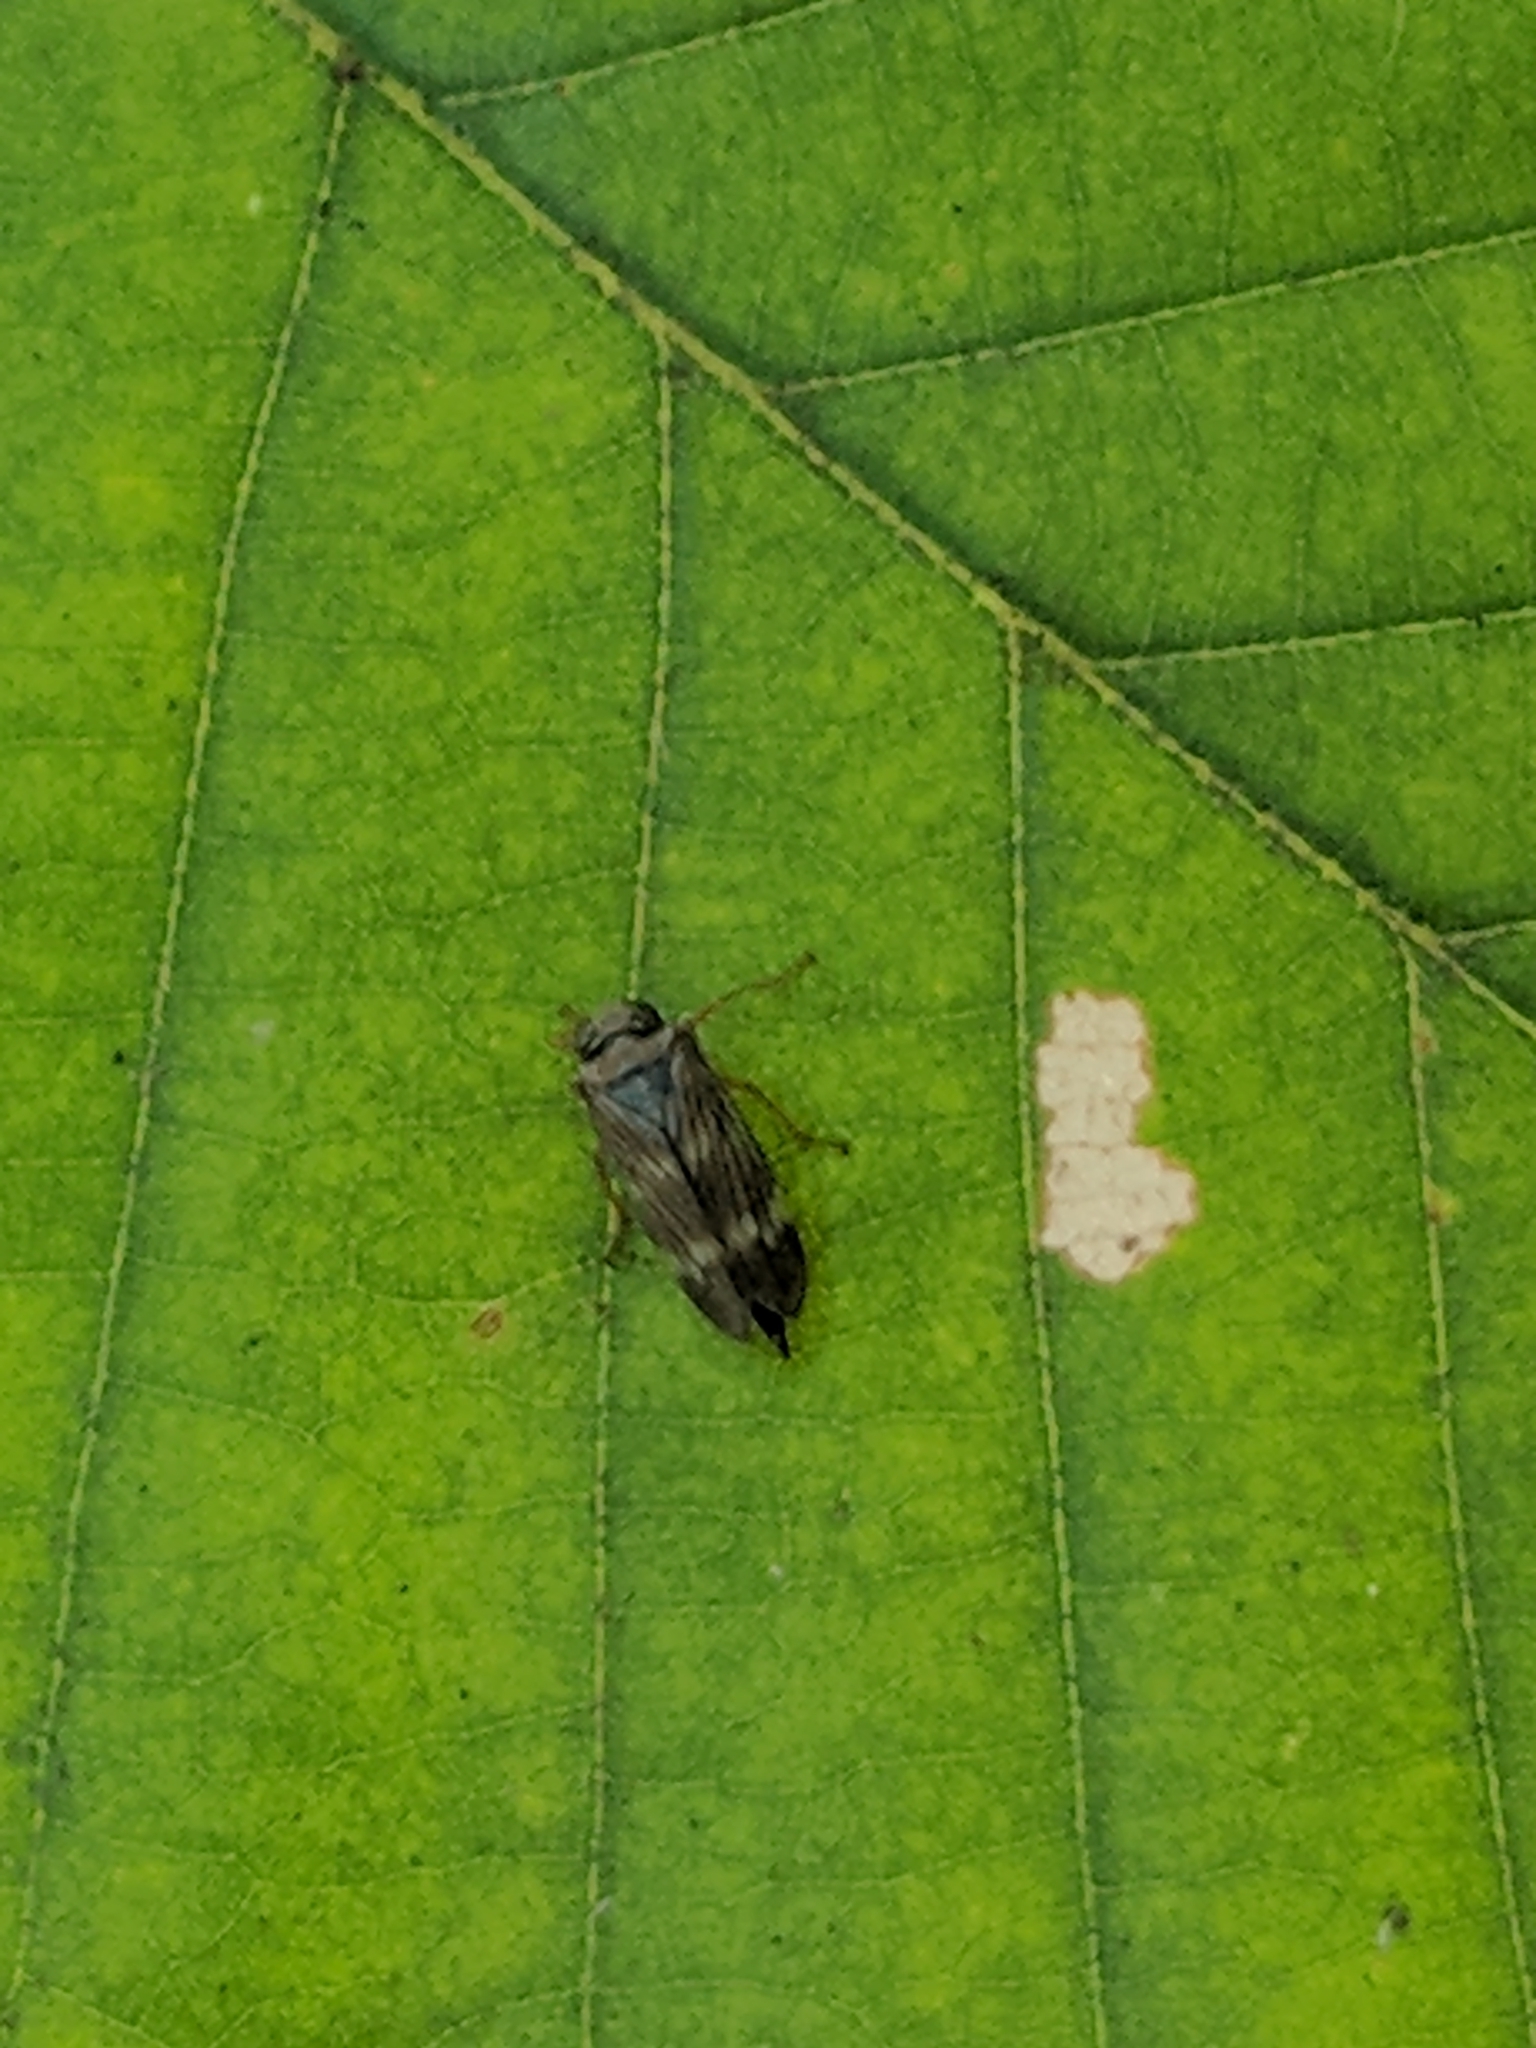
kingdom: Animalia
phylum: Arthropoda
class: Insecta
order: Hemiptera
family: Cicadellidae
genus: Jikradia
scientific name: Jikradia olitoria
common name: Coppery leafhopper
